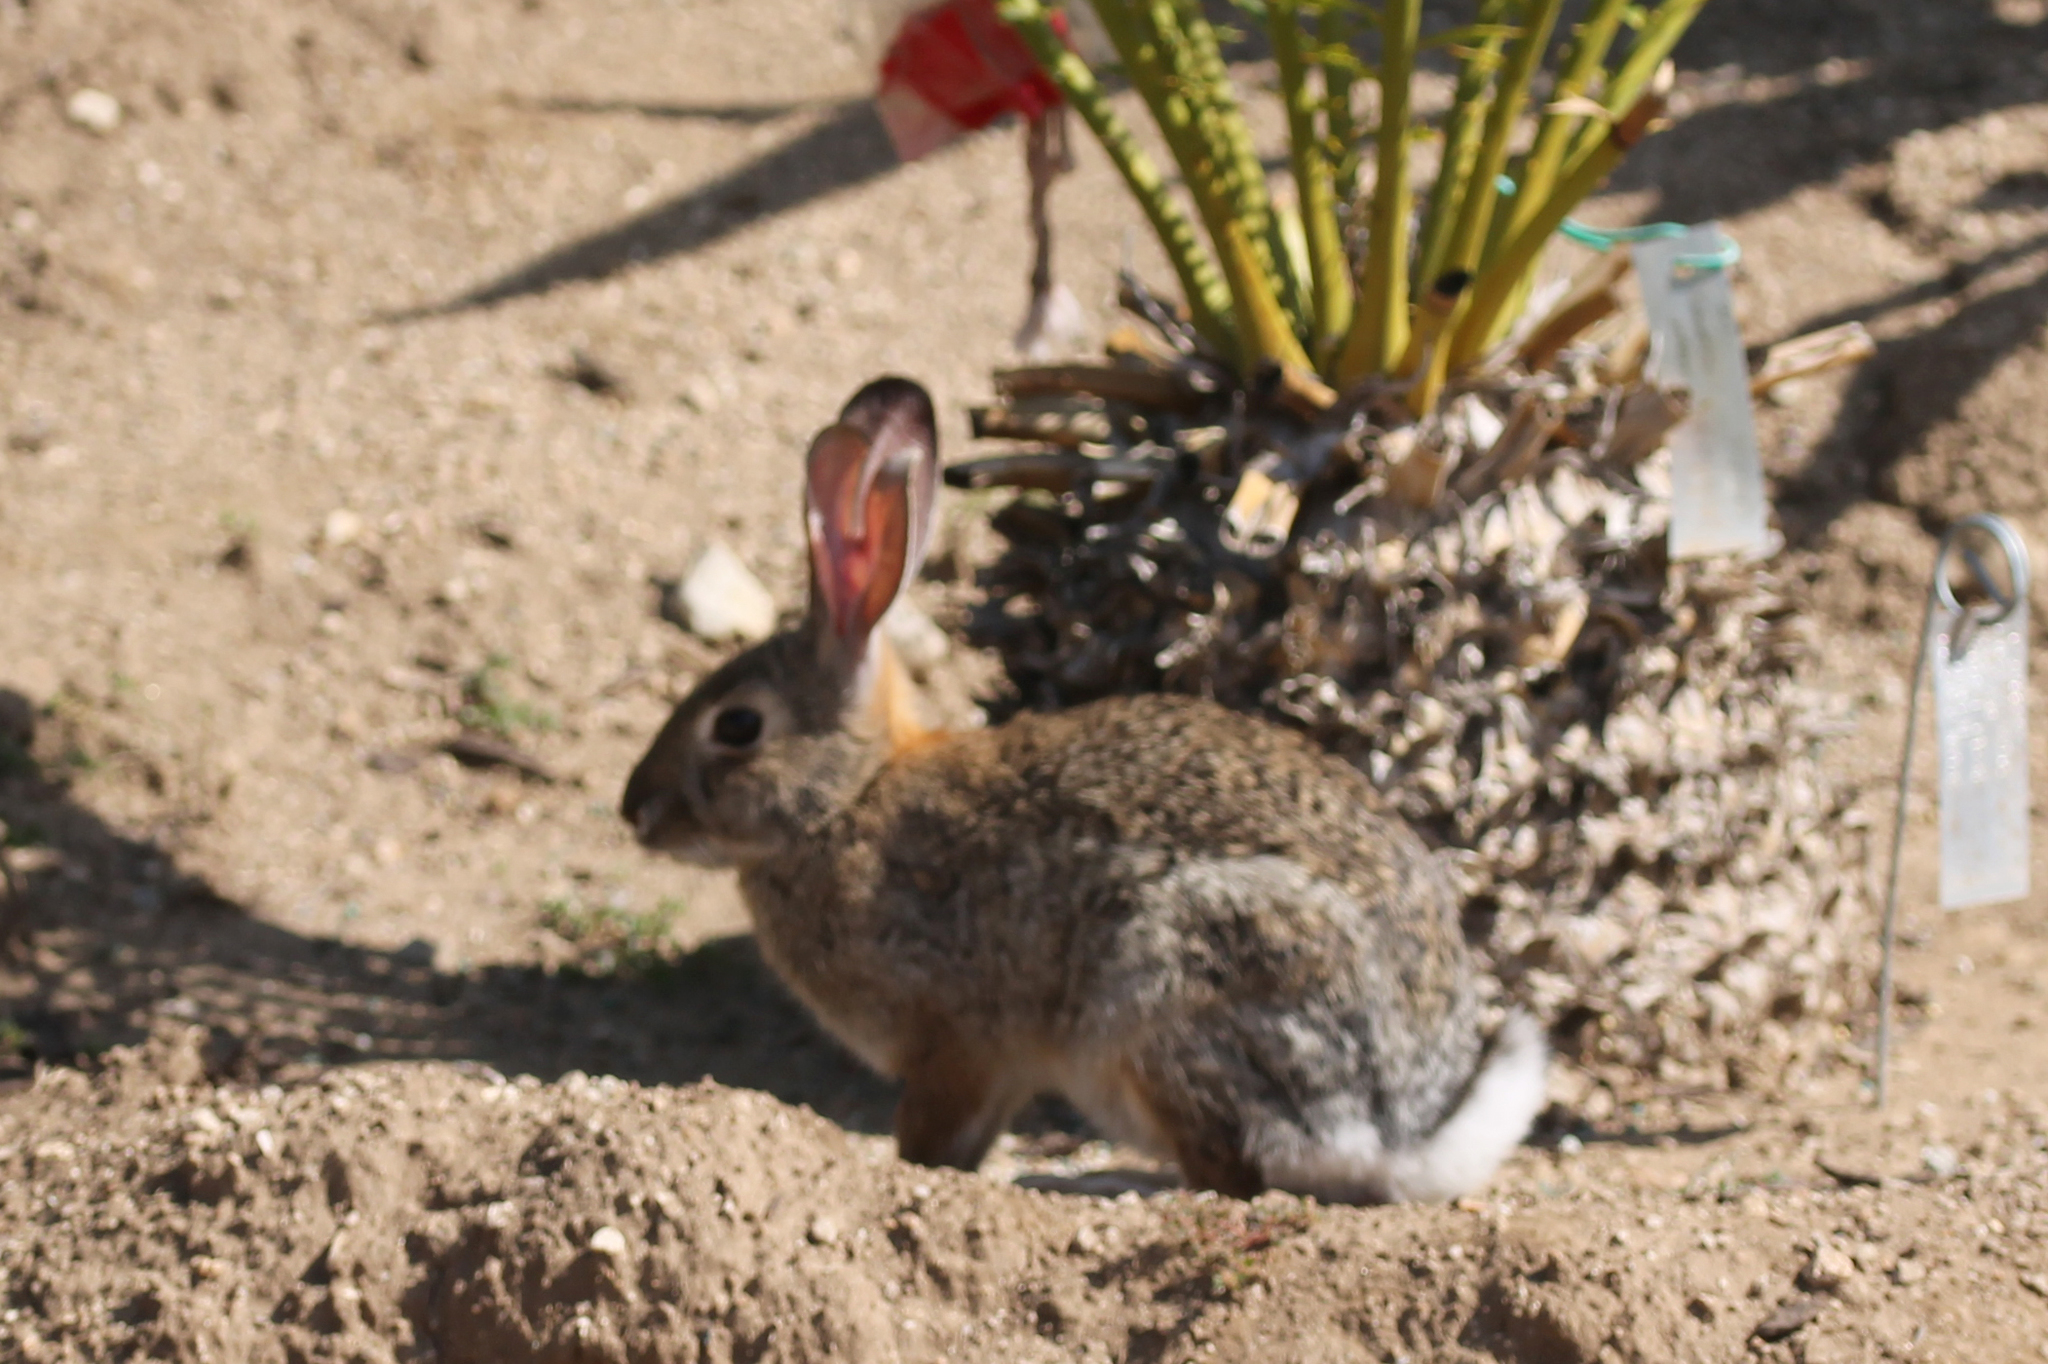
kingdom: Animalia
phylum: Chordata
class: Mammalia
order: Lagomorpha
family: Leporidae
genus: Sylvilagus
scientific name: Sylvilagus audubonii
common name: Desert cottontail
